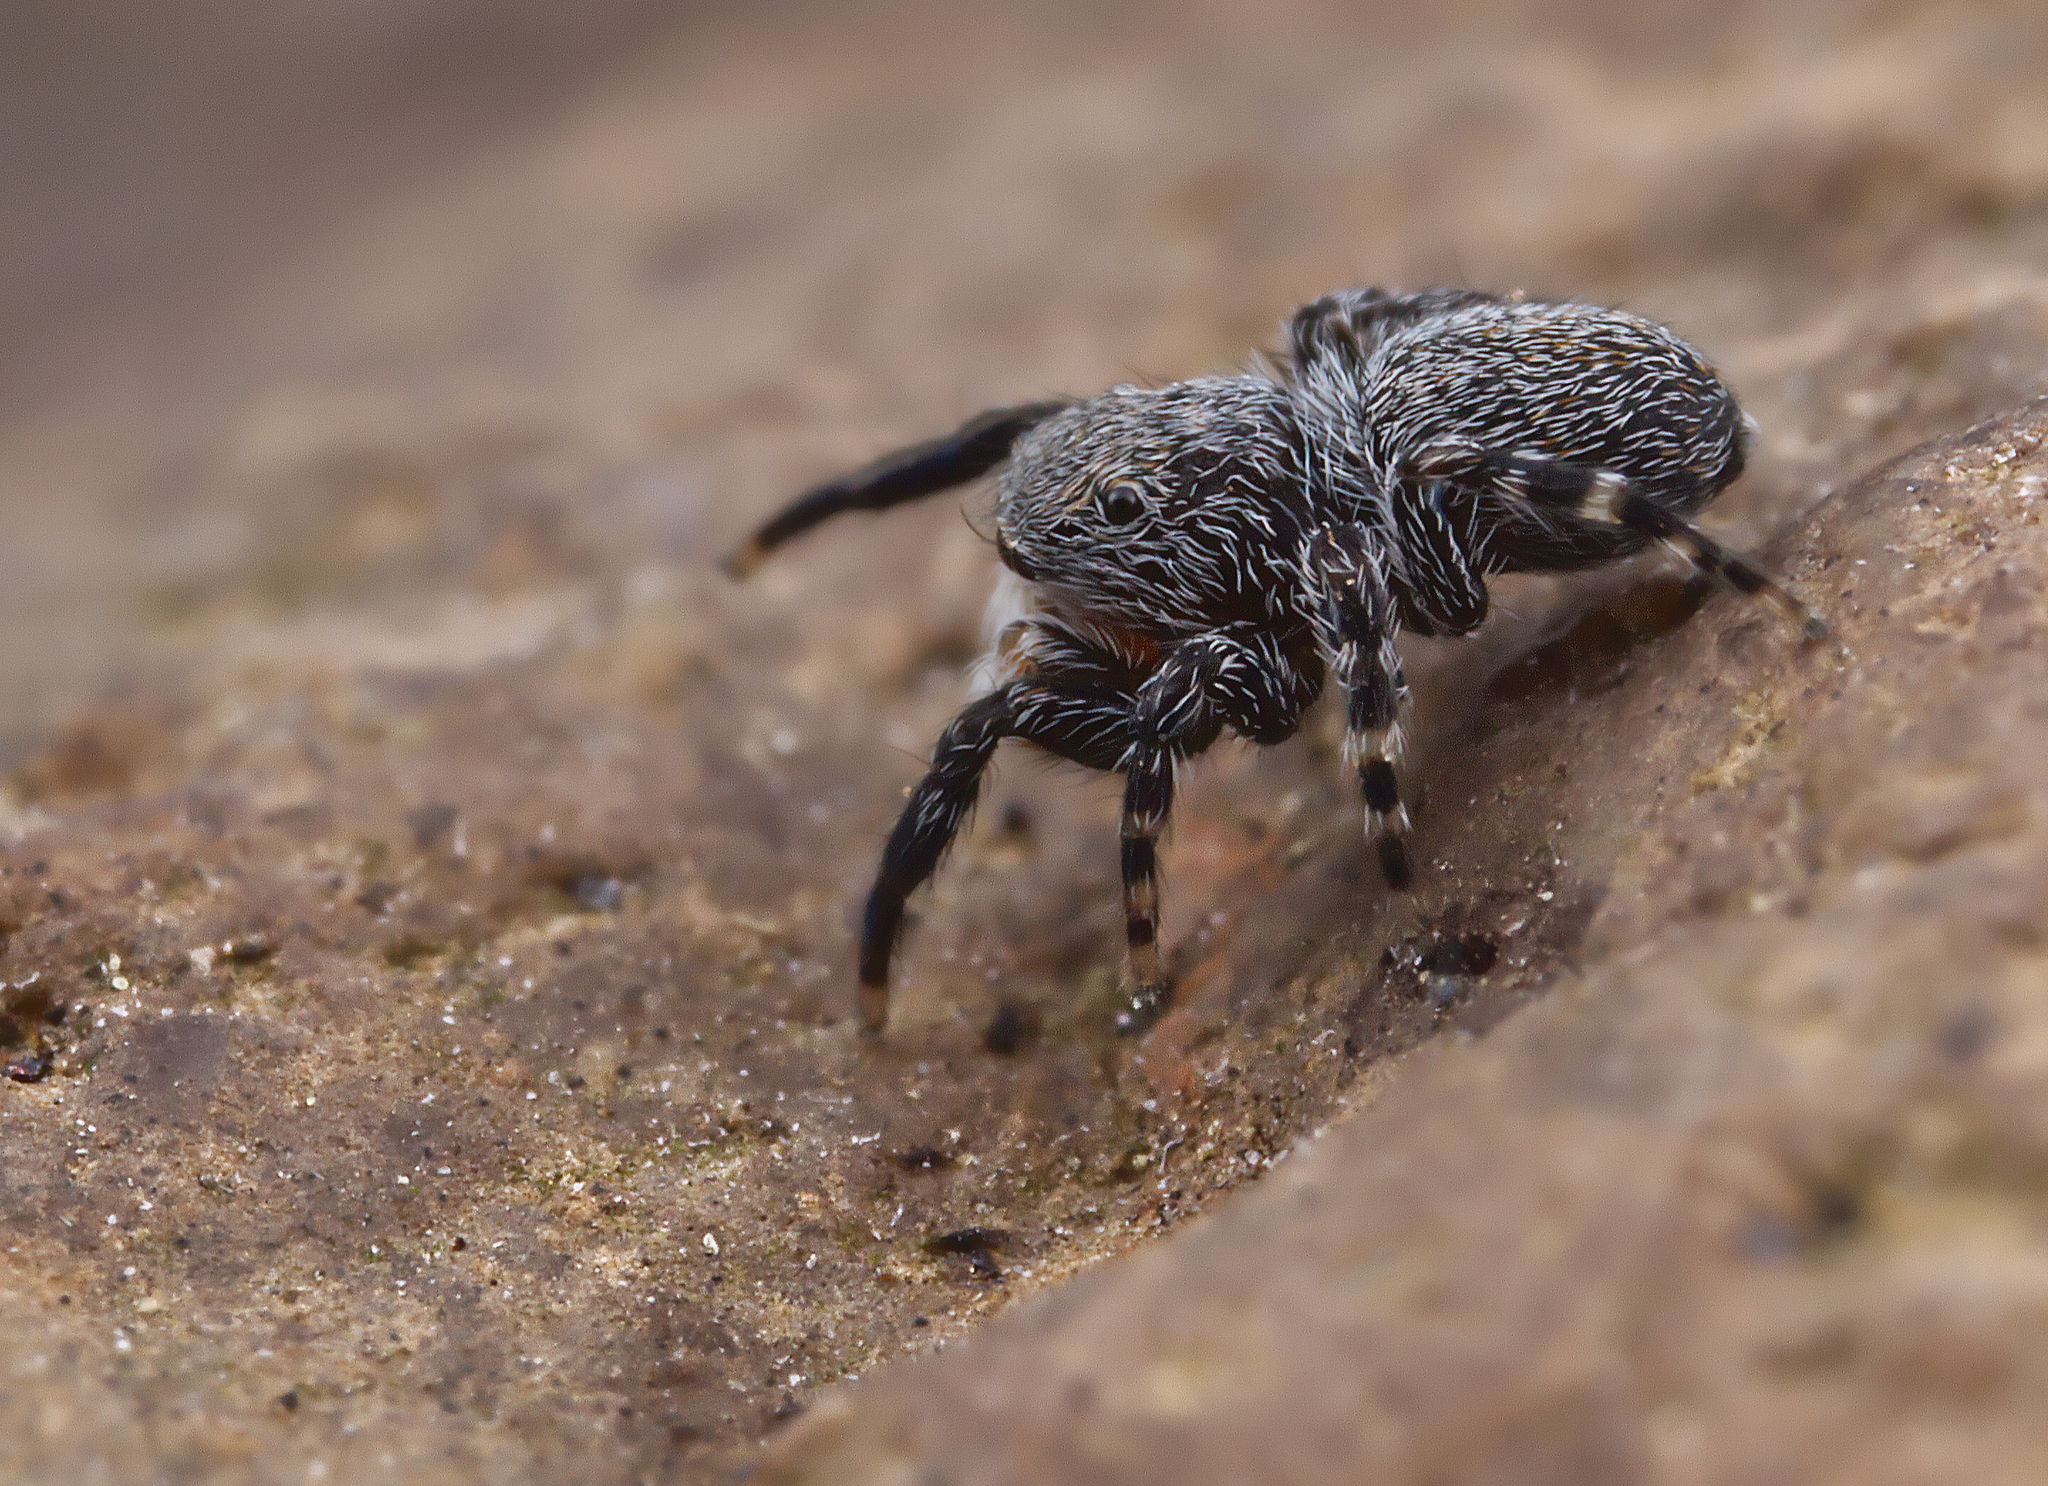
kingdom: Animalia
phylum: Arthropoda
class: Arachnida
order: Araneae
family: Salticidae
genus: Talavera
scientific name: Talavera minuta
